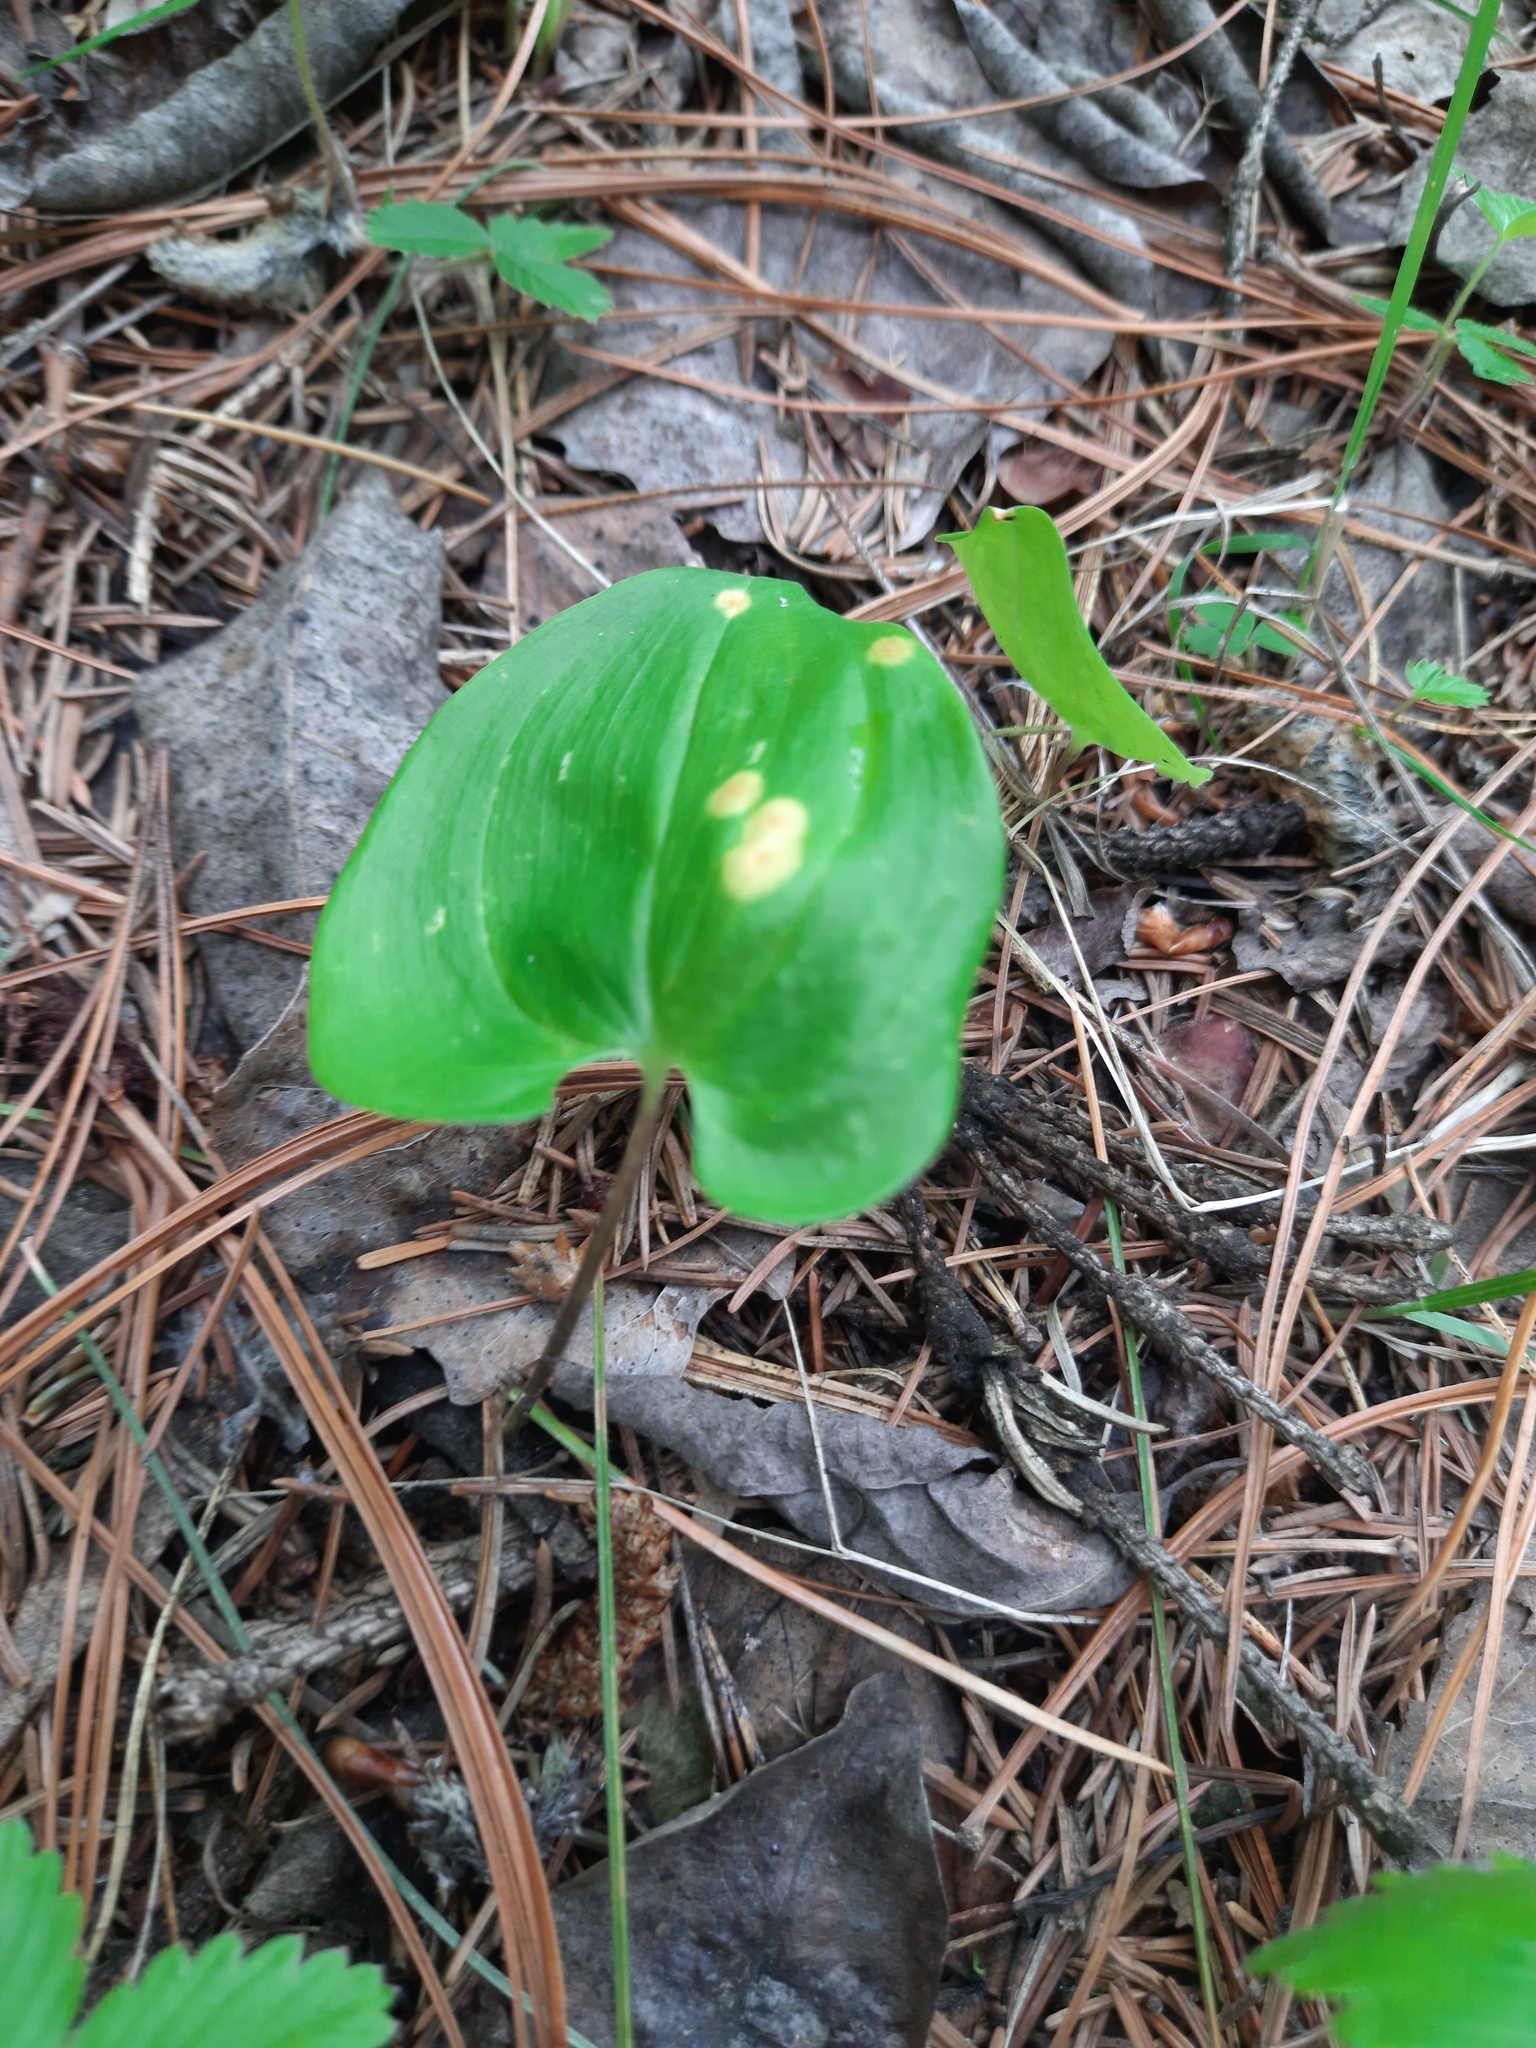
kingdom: Plantae
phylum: Tracheophyta
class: Liliopsida
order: Asparagales
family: Asparagaceae
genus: Maianthemum
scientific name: Maianthemum bifolium
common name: May lily
